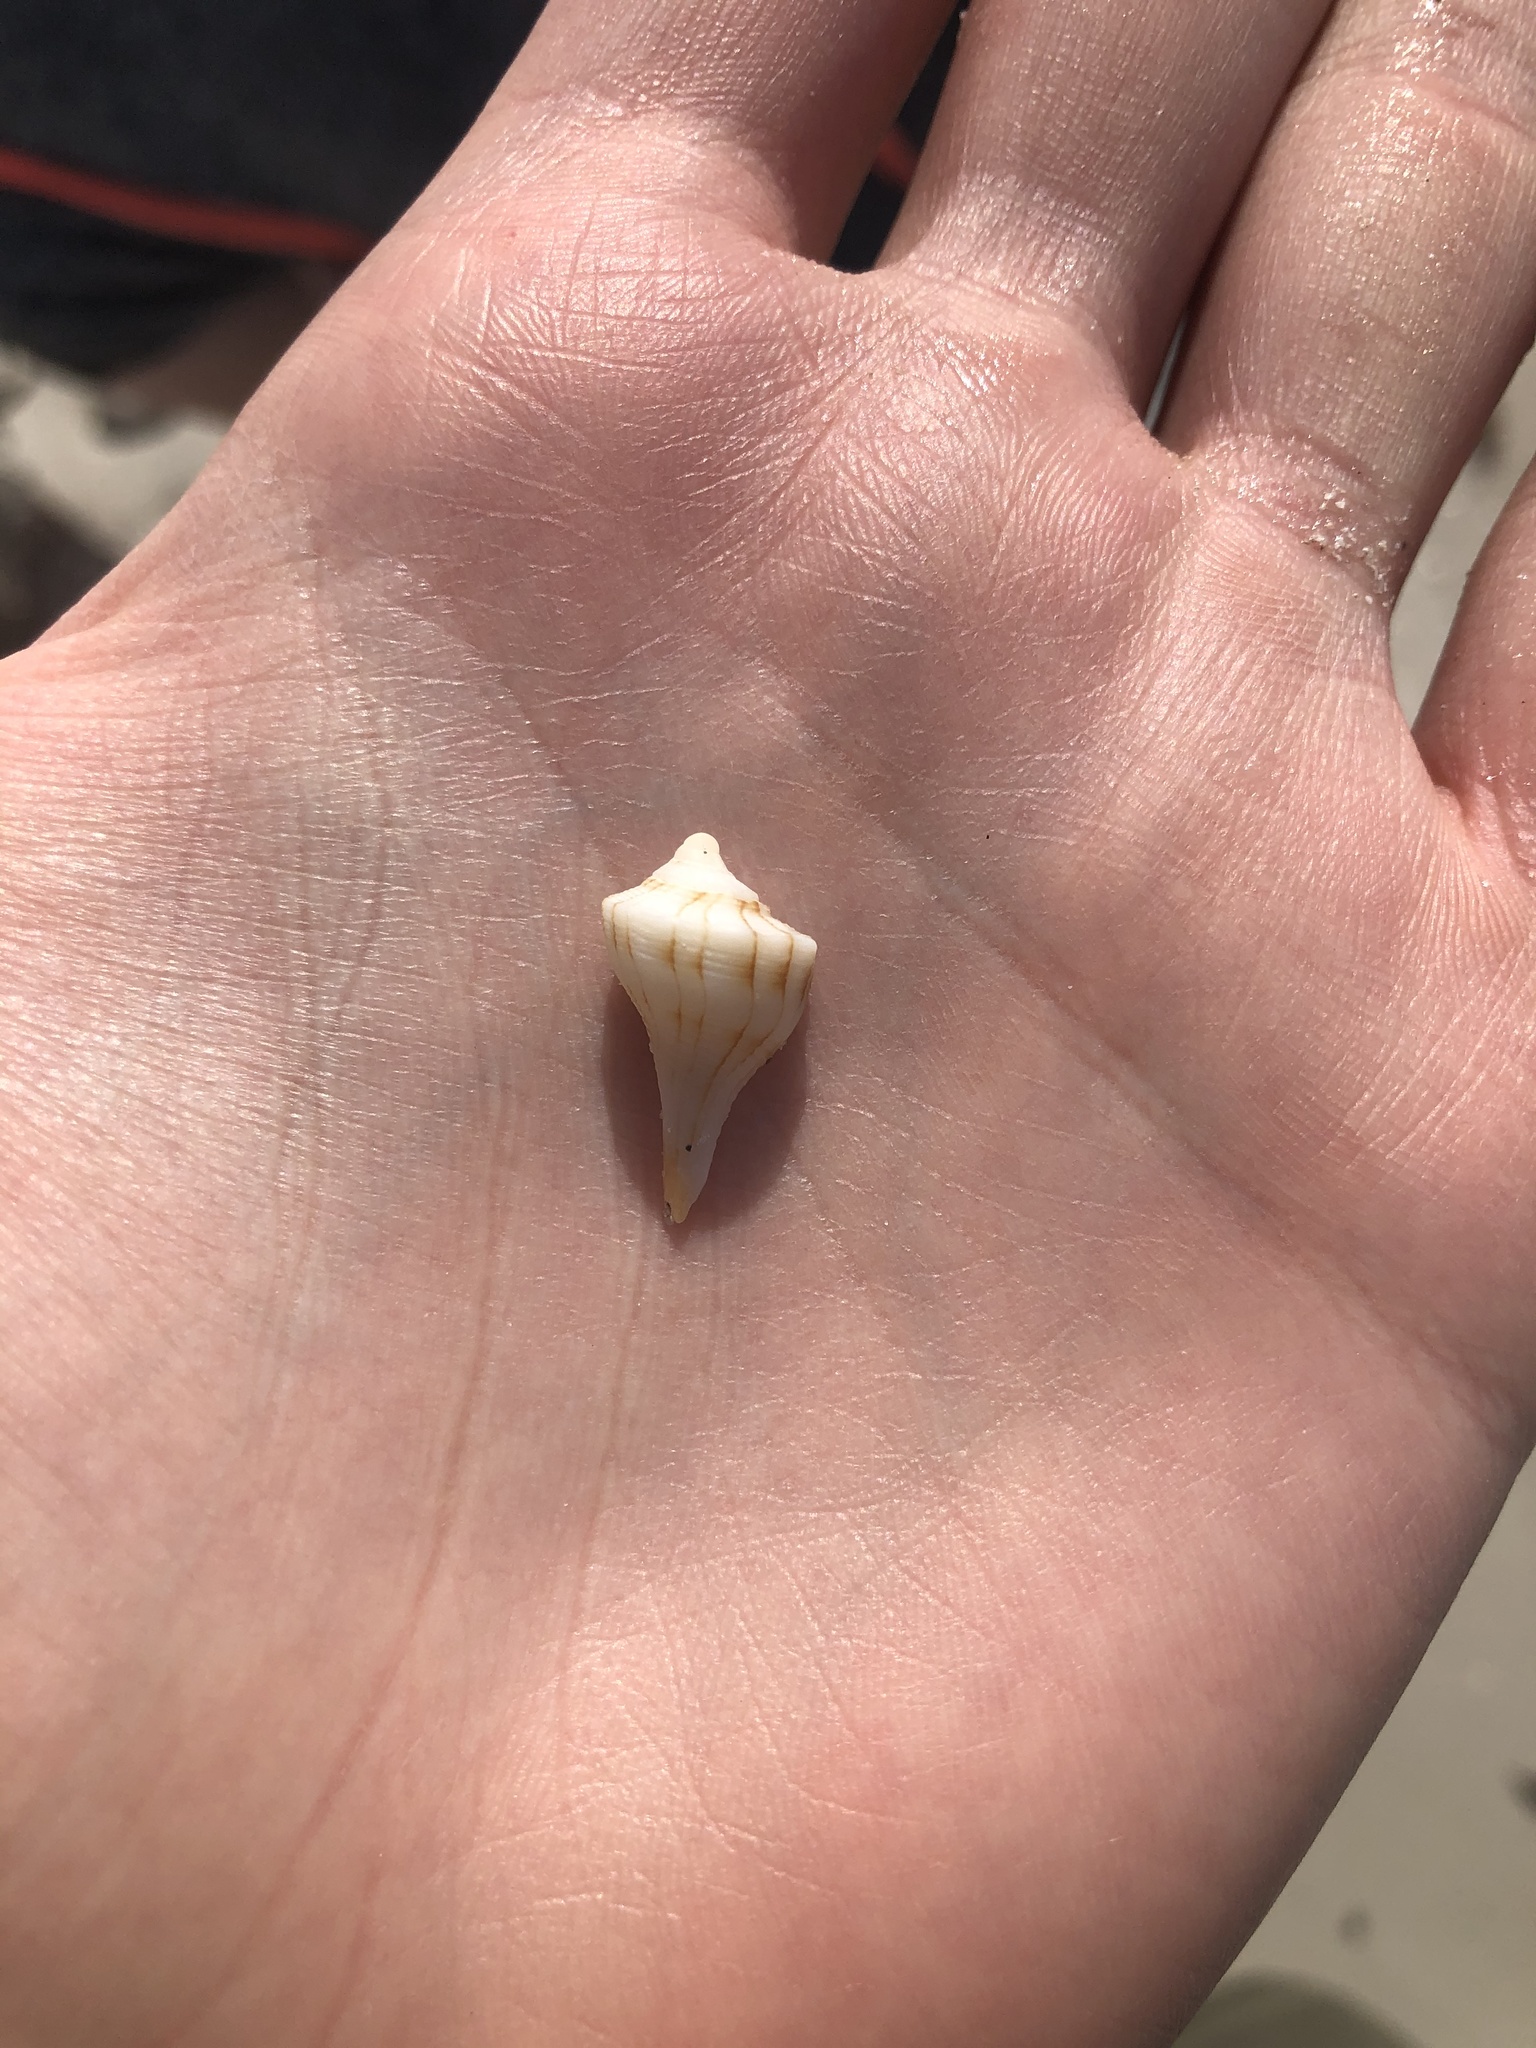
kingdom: Animalia
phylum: Mollusca
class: Gastropoda
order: Neogastropoda
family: Busyconidae
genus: Sinistrofulgur
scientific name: Sinistrofulgur sinistrum
